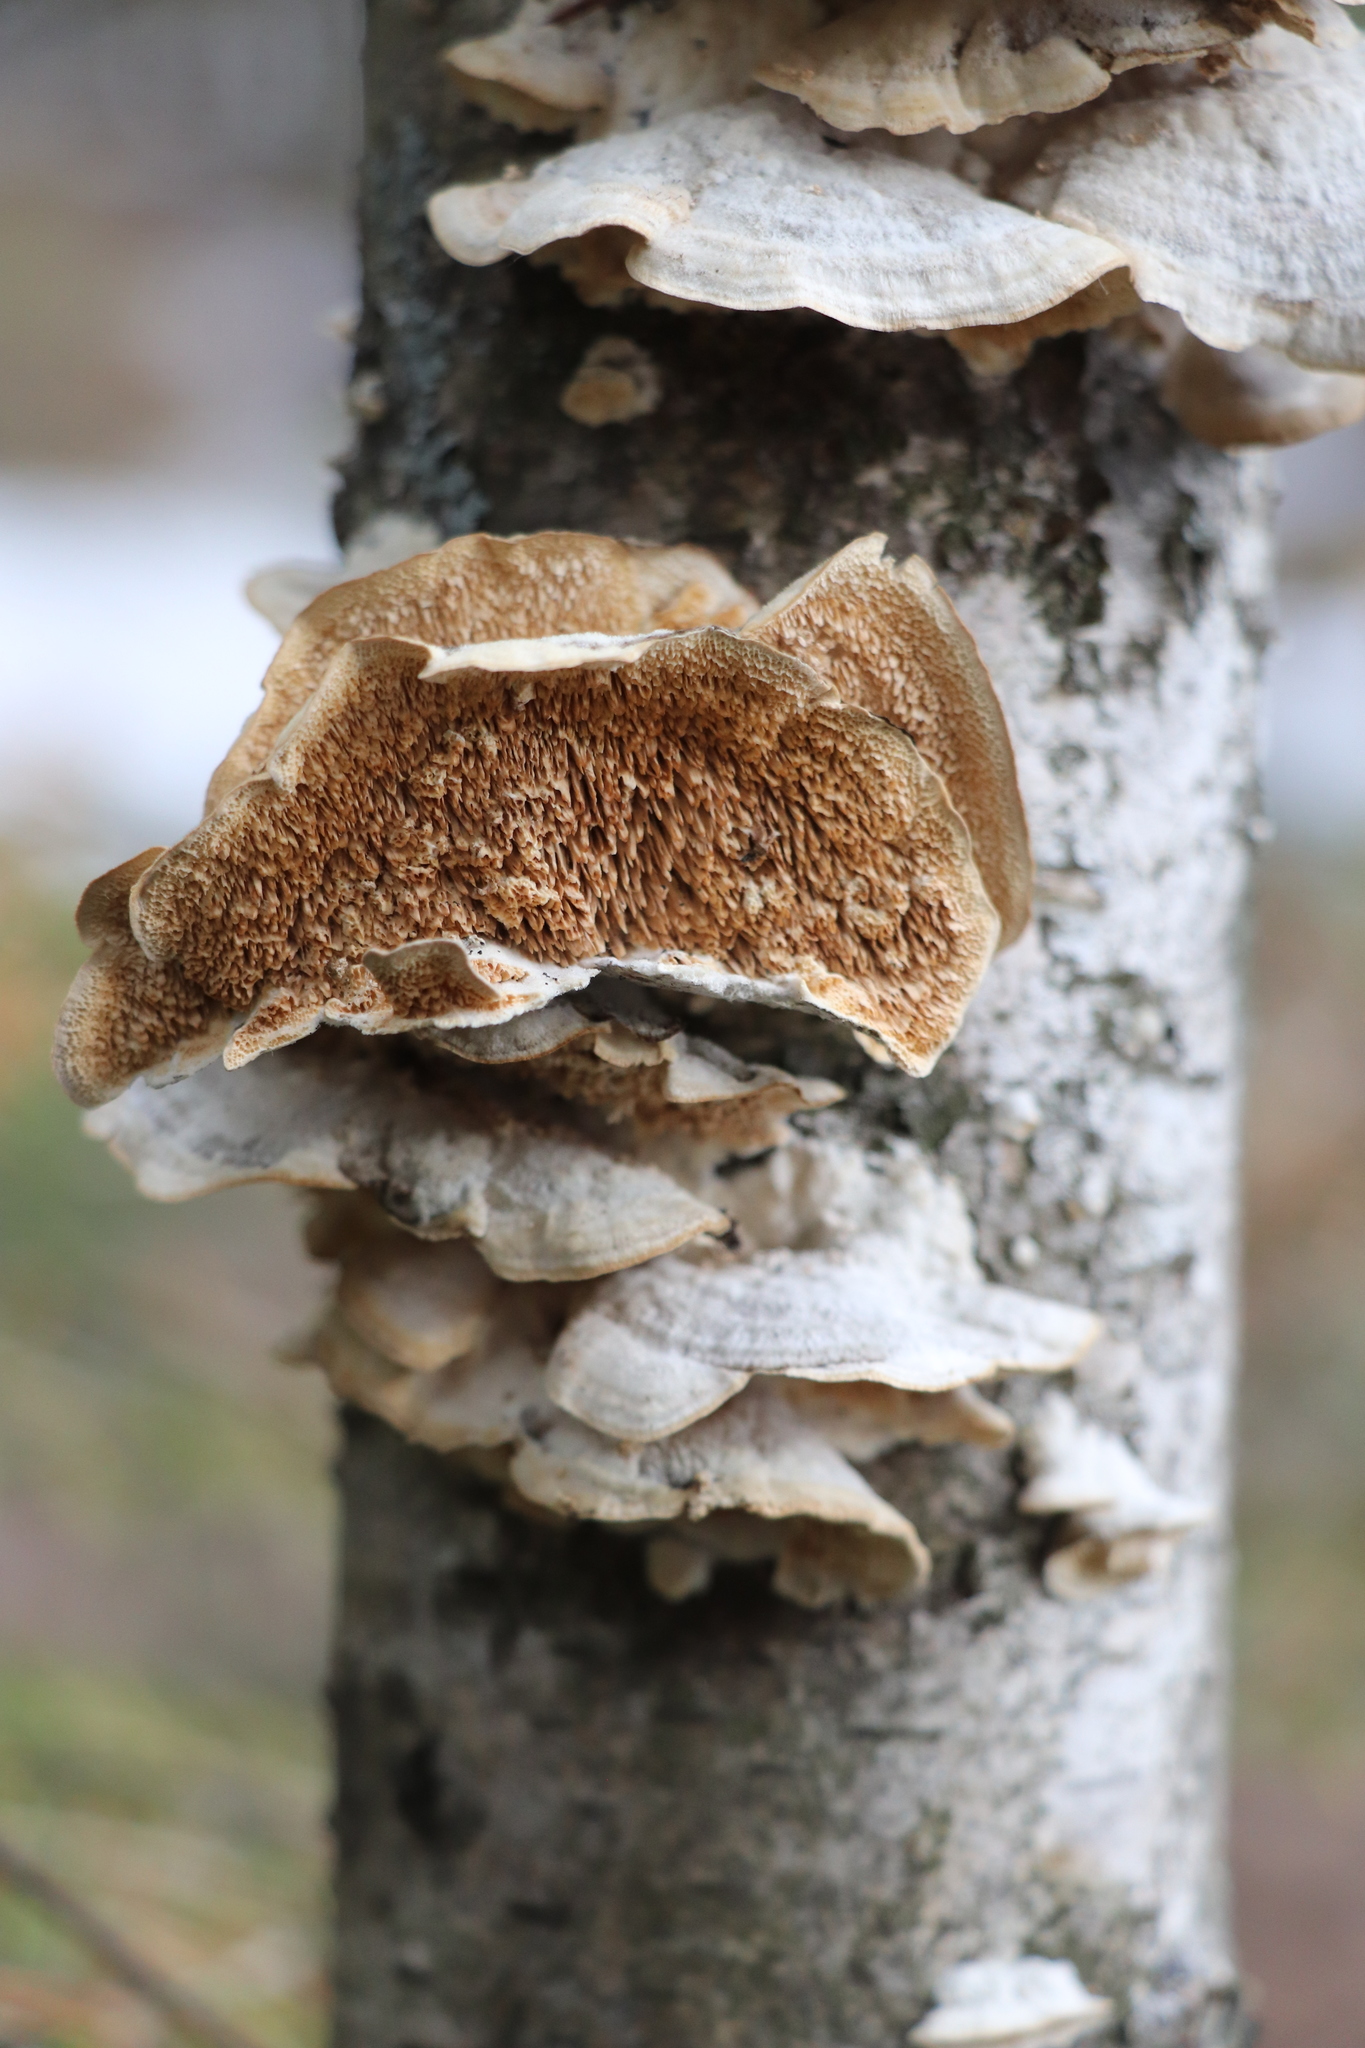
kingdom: Fungi
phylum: Basidiomycota
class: Agaricomycetes
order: Hymenochaetales
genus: Trichaptum
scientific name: Trichaptum biforme
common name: Violet-toothed polypore
